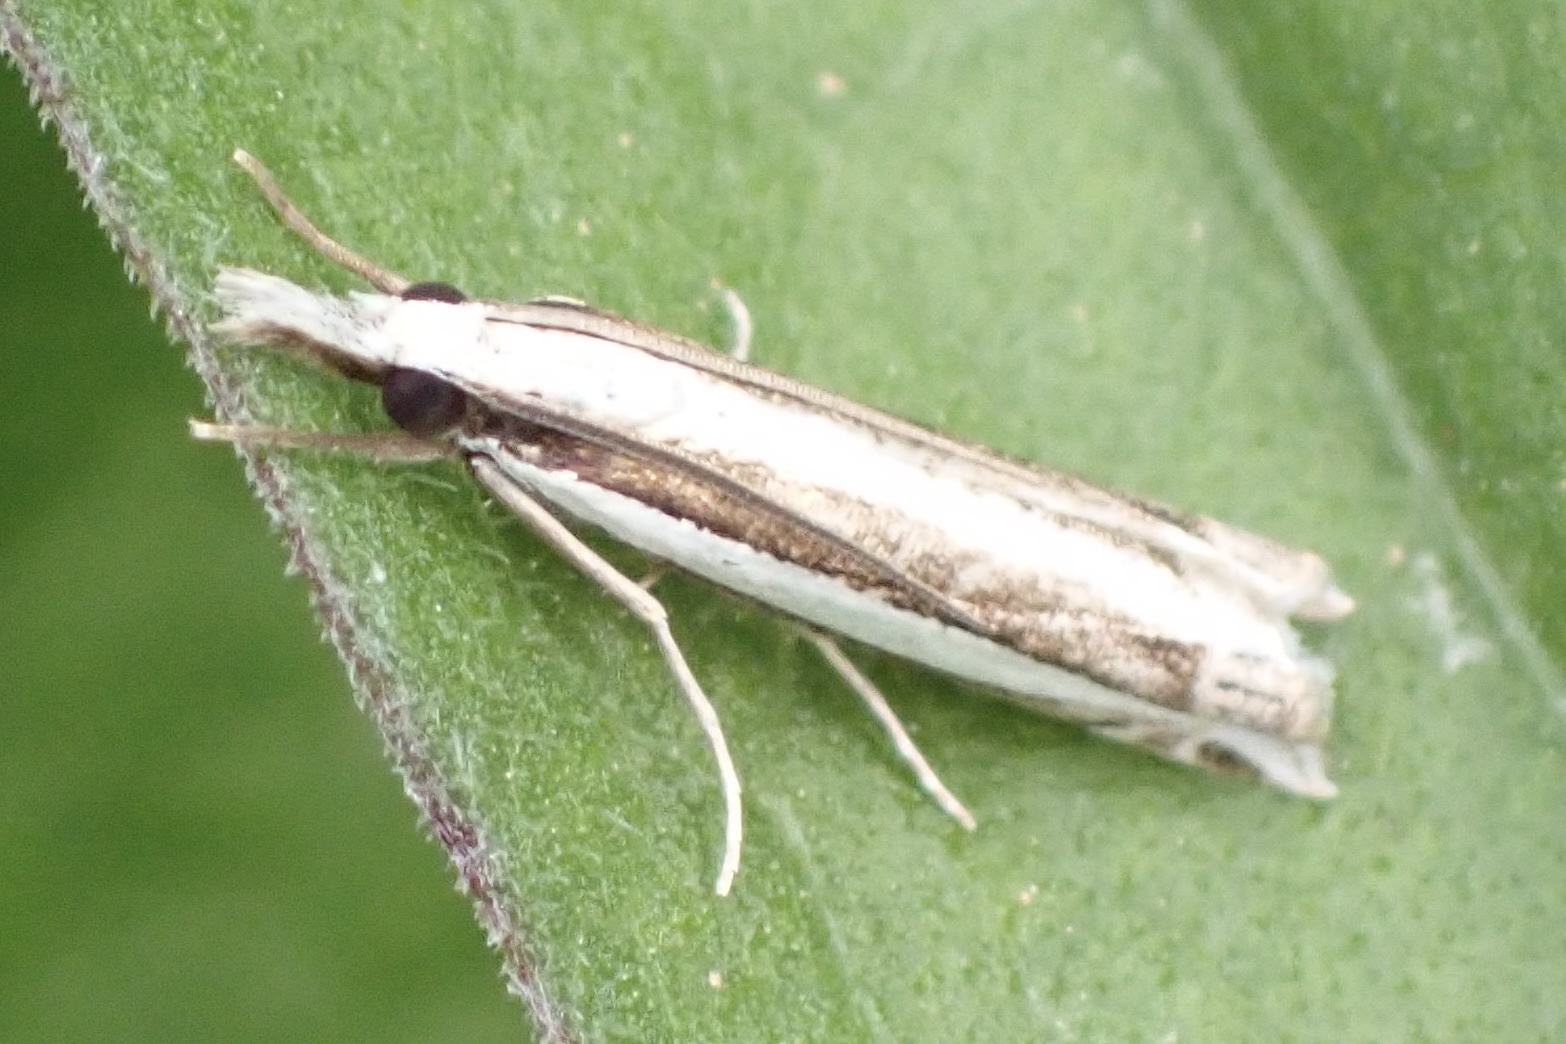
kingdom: Animalia
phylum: Arthropoda
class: Insecta
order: Lepidoptera
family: Crambidae
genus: Angustalius
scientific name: Angustalius malacellus
